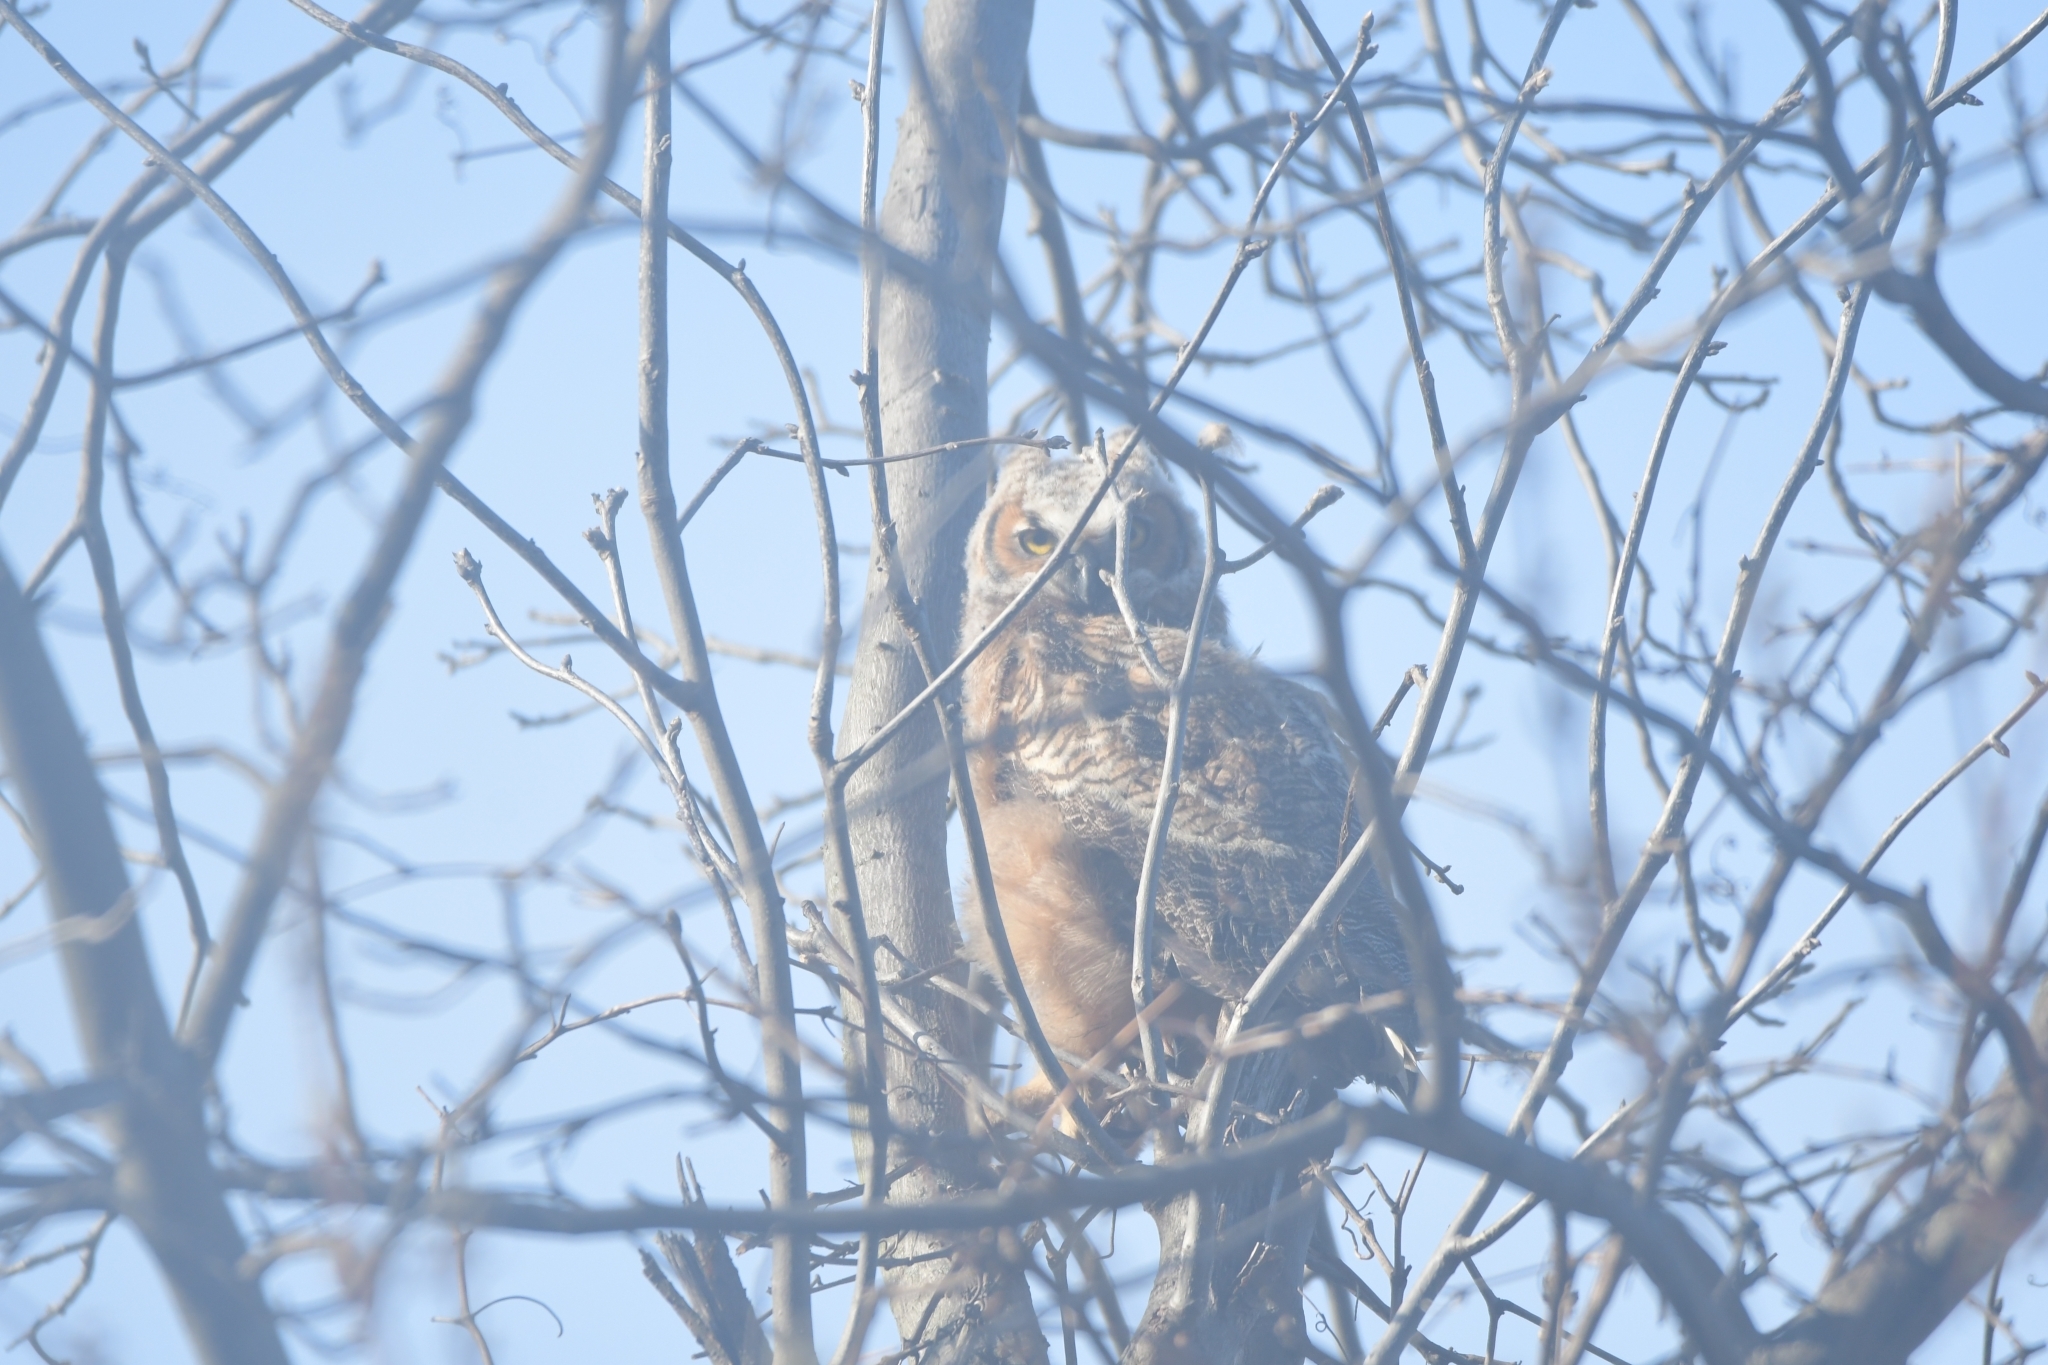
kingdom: Animalia
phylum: Chordata
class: Aves
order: Strigiformes
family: Strigidae
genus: Bubo
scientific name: Bubo virginianus
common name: Great horned owl
